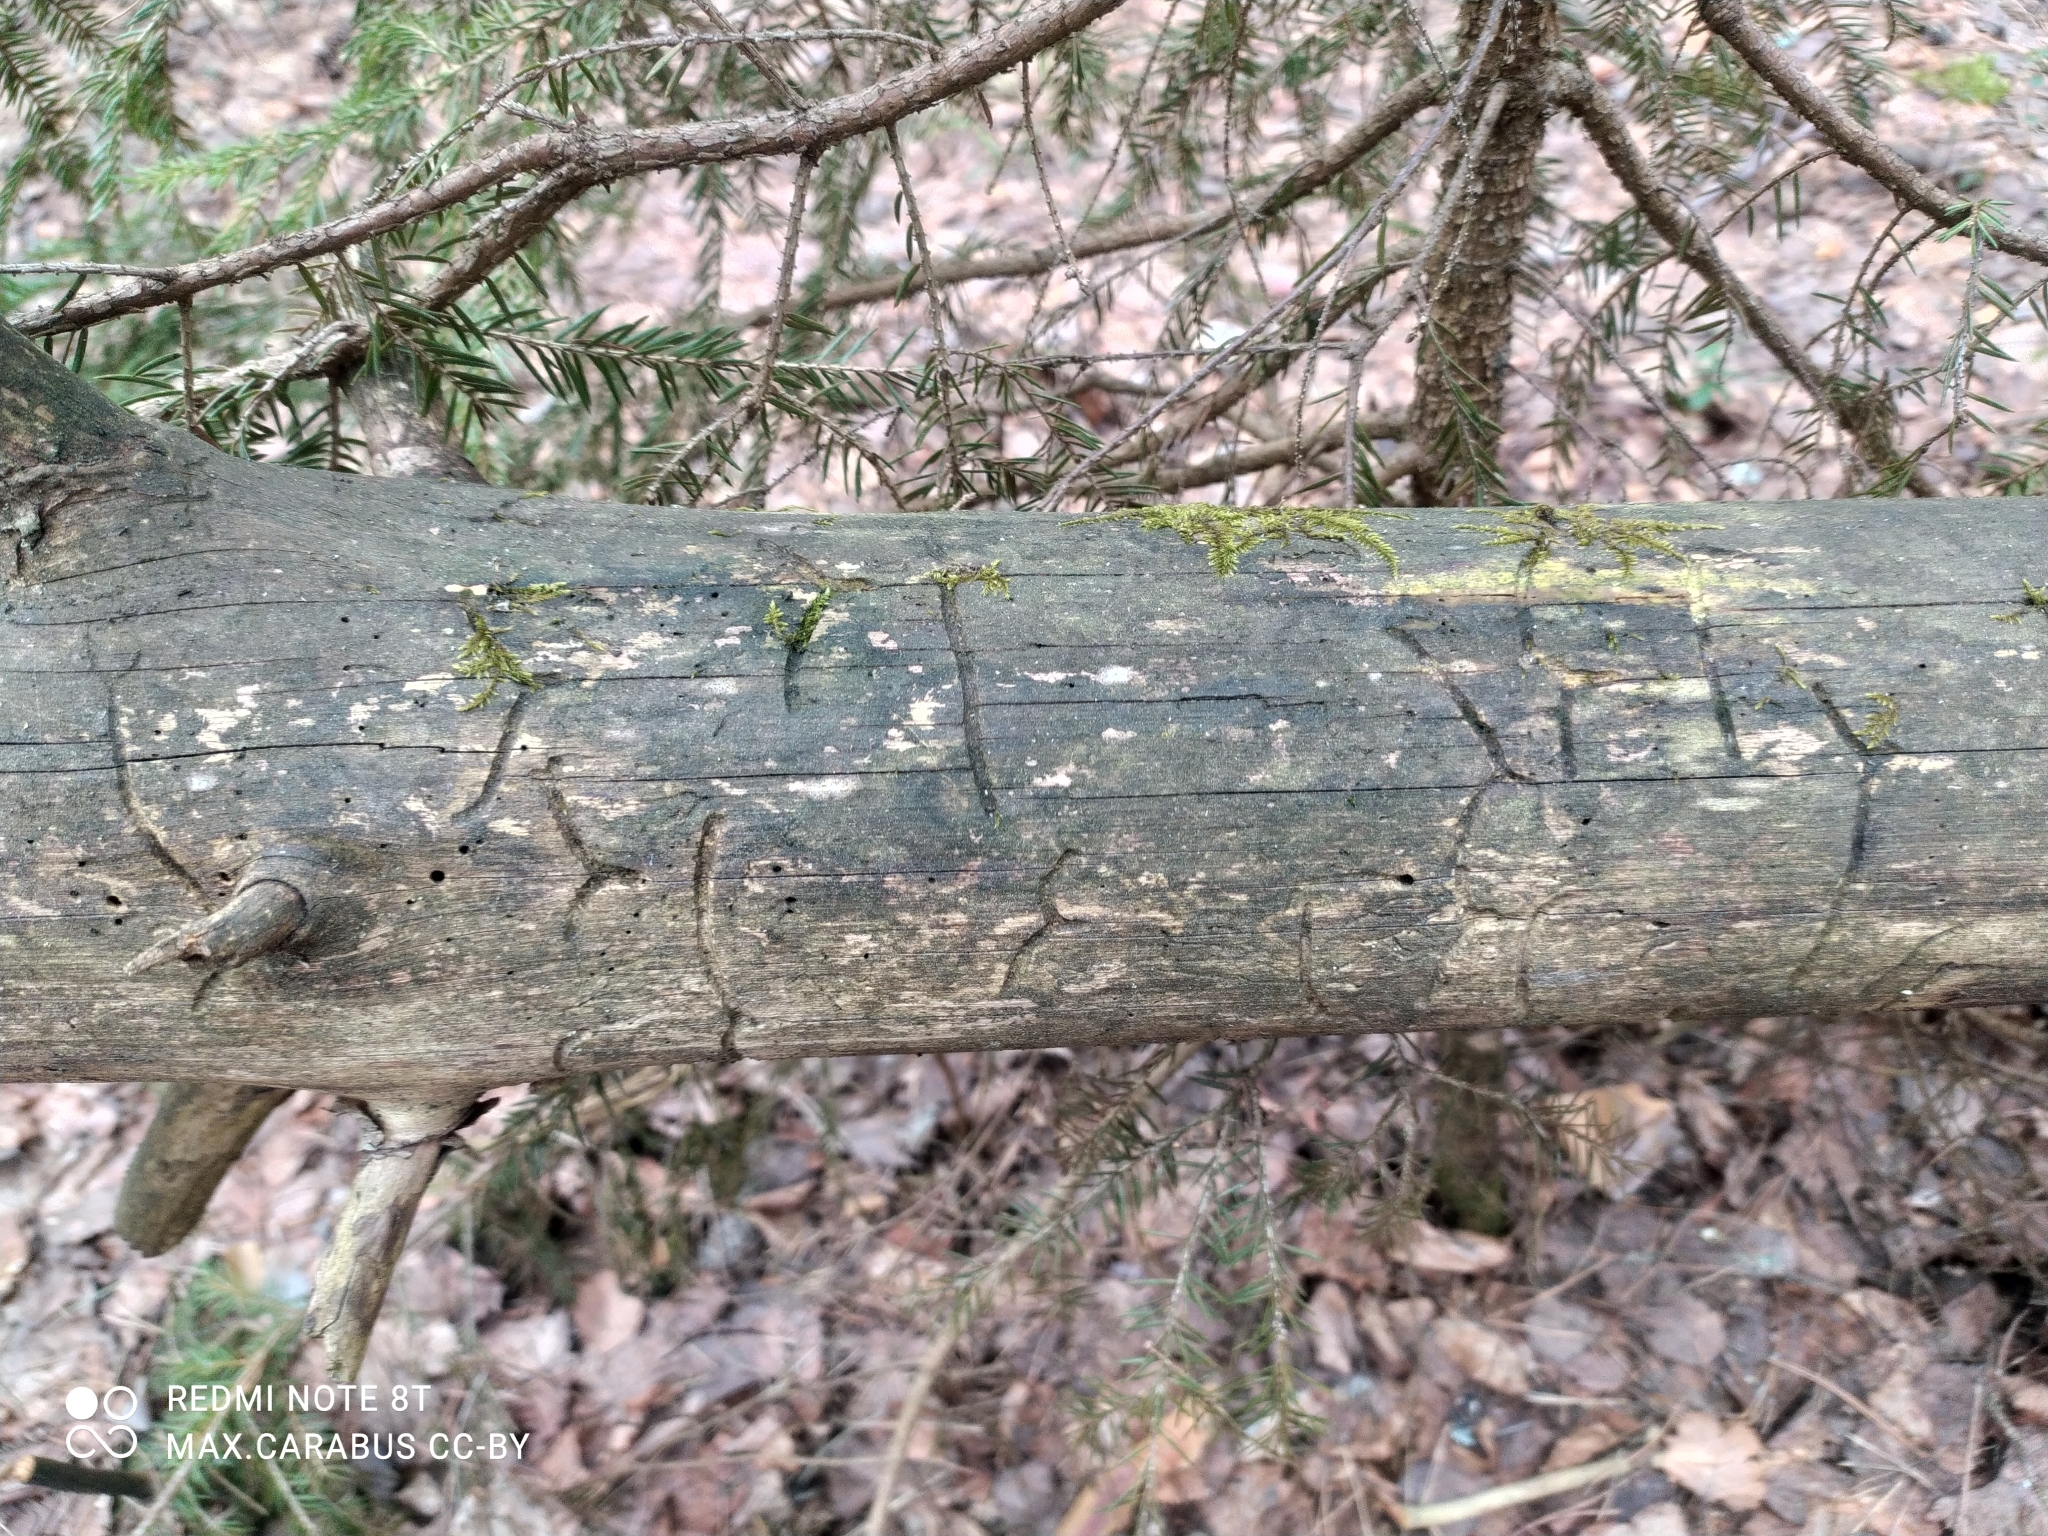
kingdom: Animalia
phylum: Arthropoda
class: Insecta
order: Coleoptera
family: Curculionidae
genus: Tomicus
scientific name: Tomicus minor
